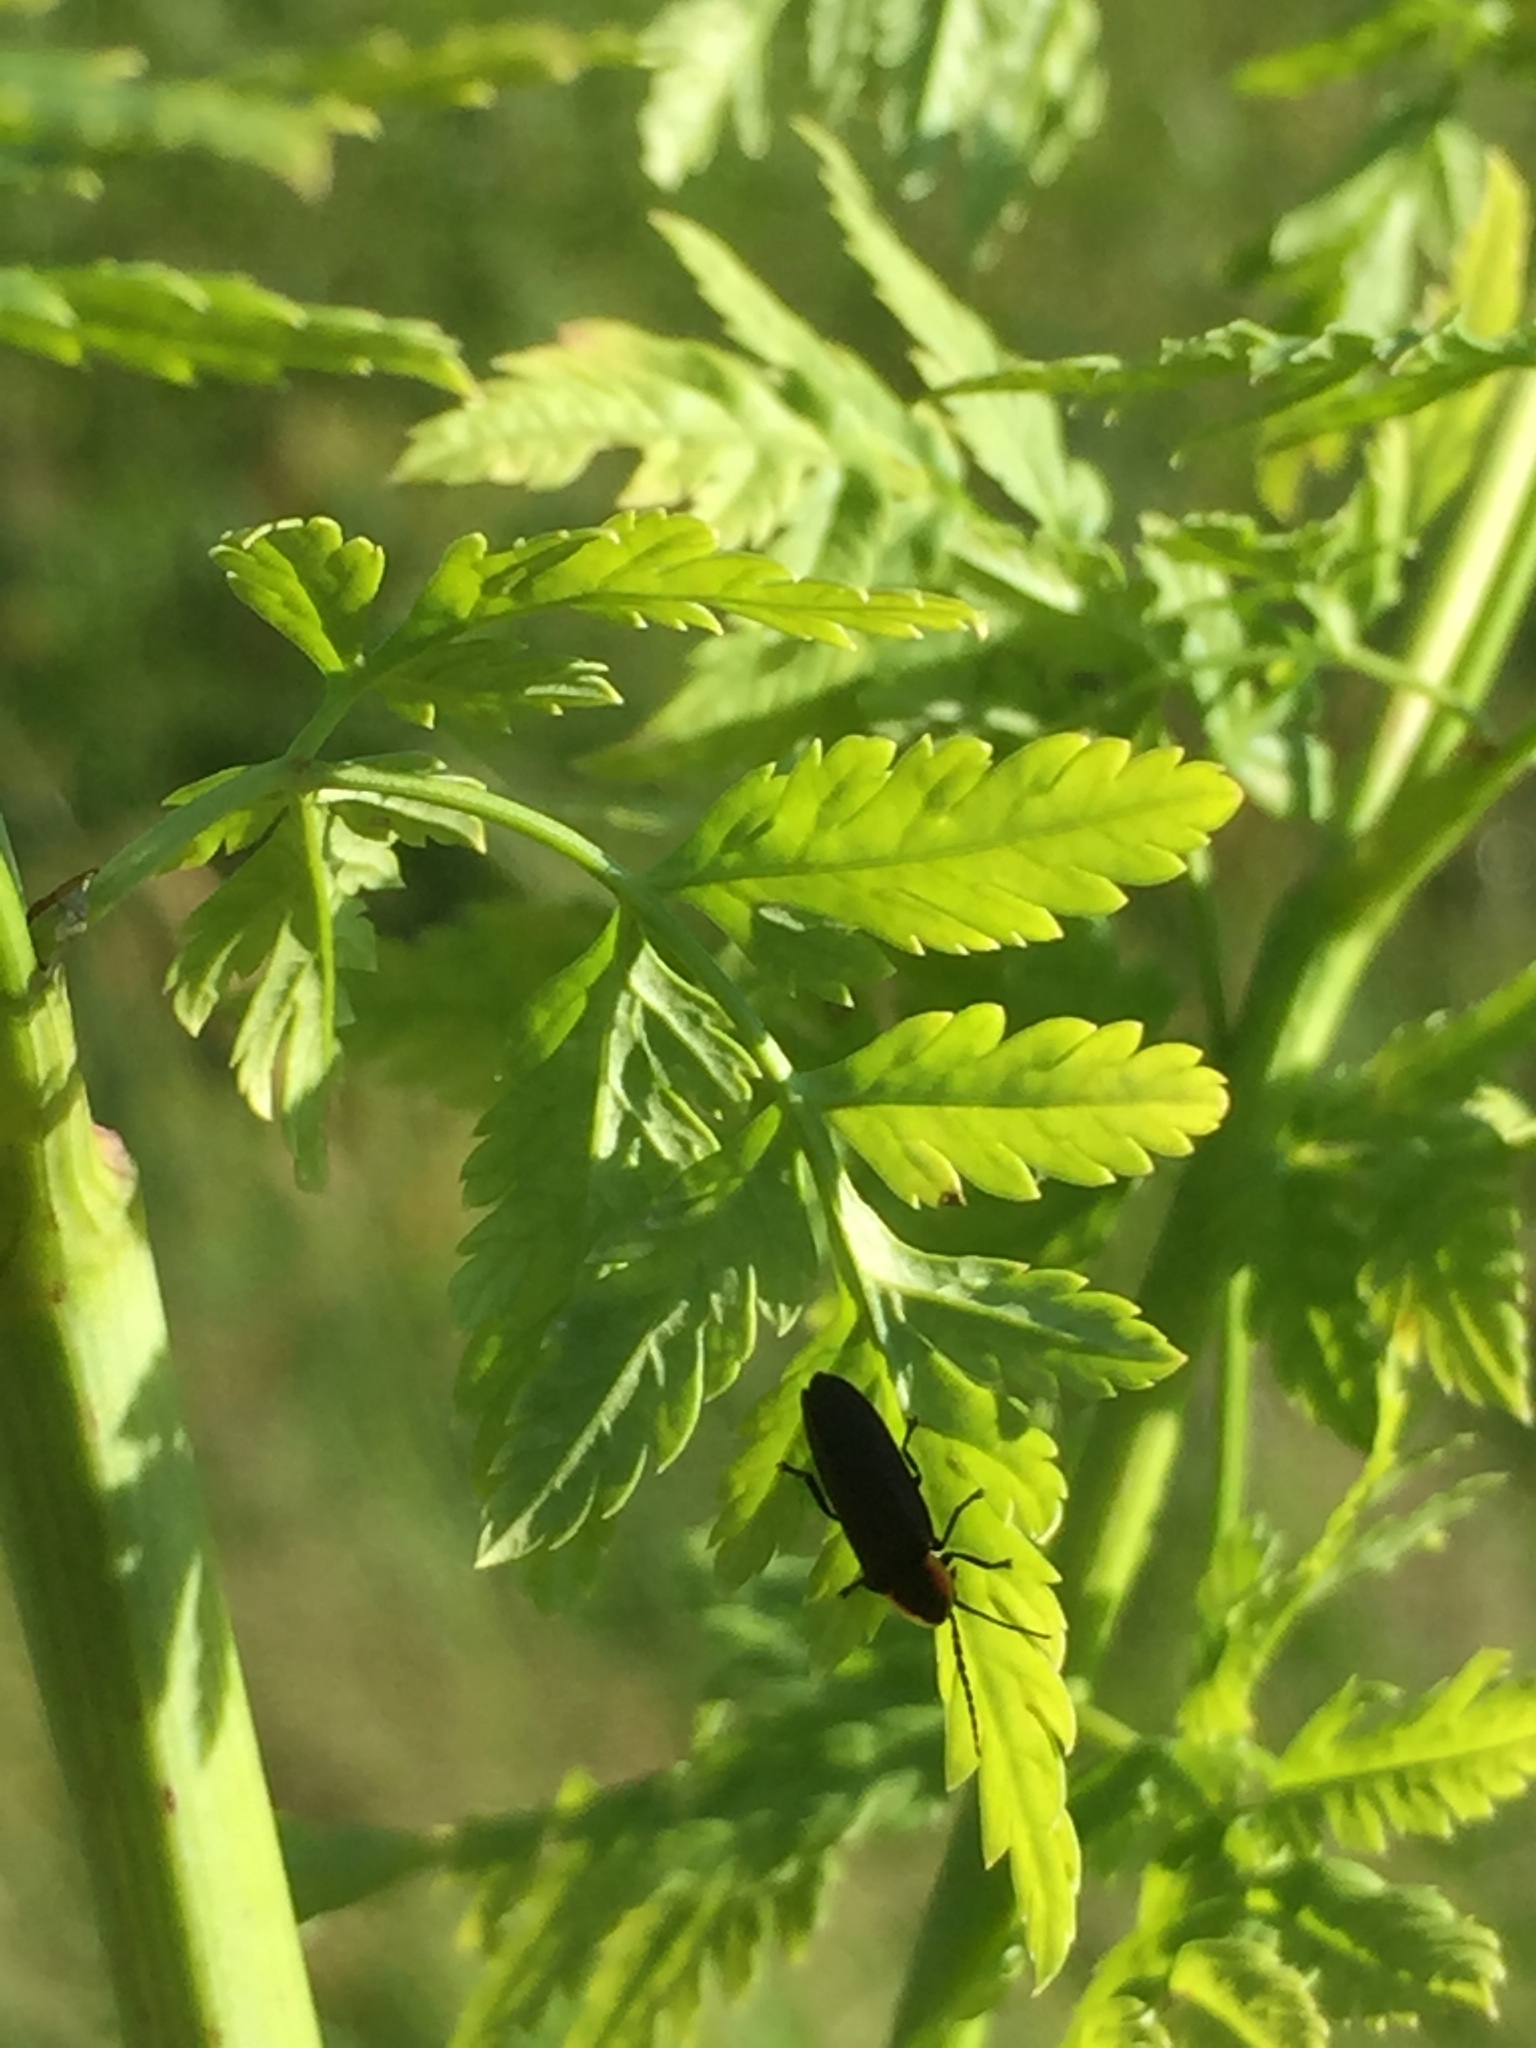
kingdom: Animalia
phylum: Arthropoda
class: Insecta
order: Coleoptera
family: Lampyridae
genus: Lucidota
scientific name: Lucidota atra
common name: Black firefly
